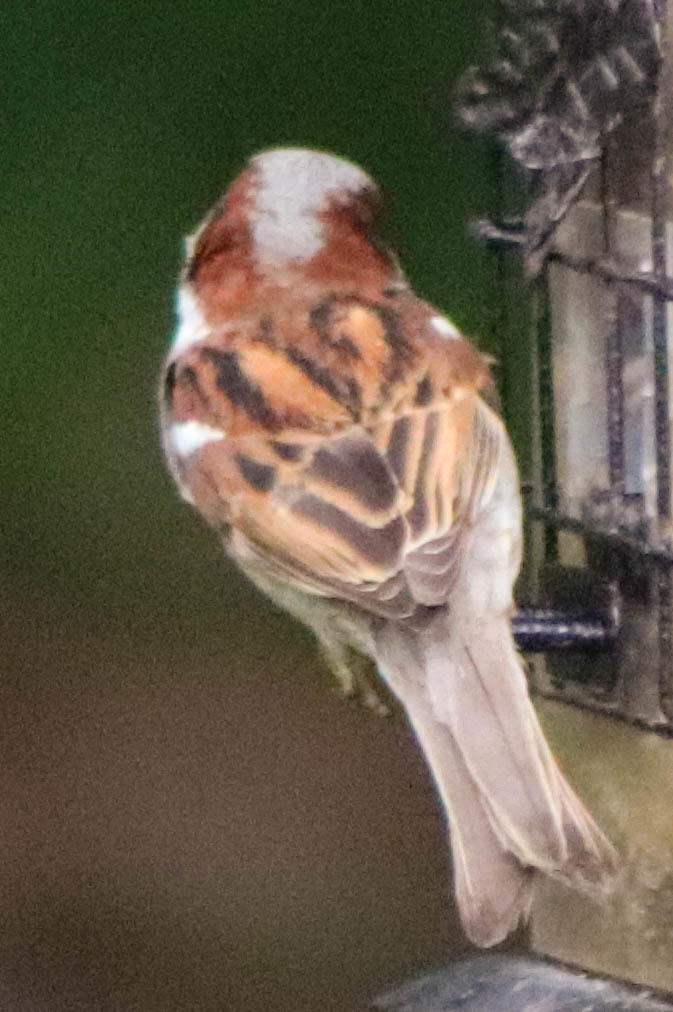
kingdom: Animalia
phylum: Chordata
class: Aves
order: Passeriformes
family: Passeridae
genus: Passer
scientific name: Passer domesticus
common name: House sparrow
